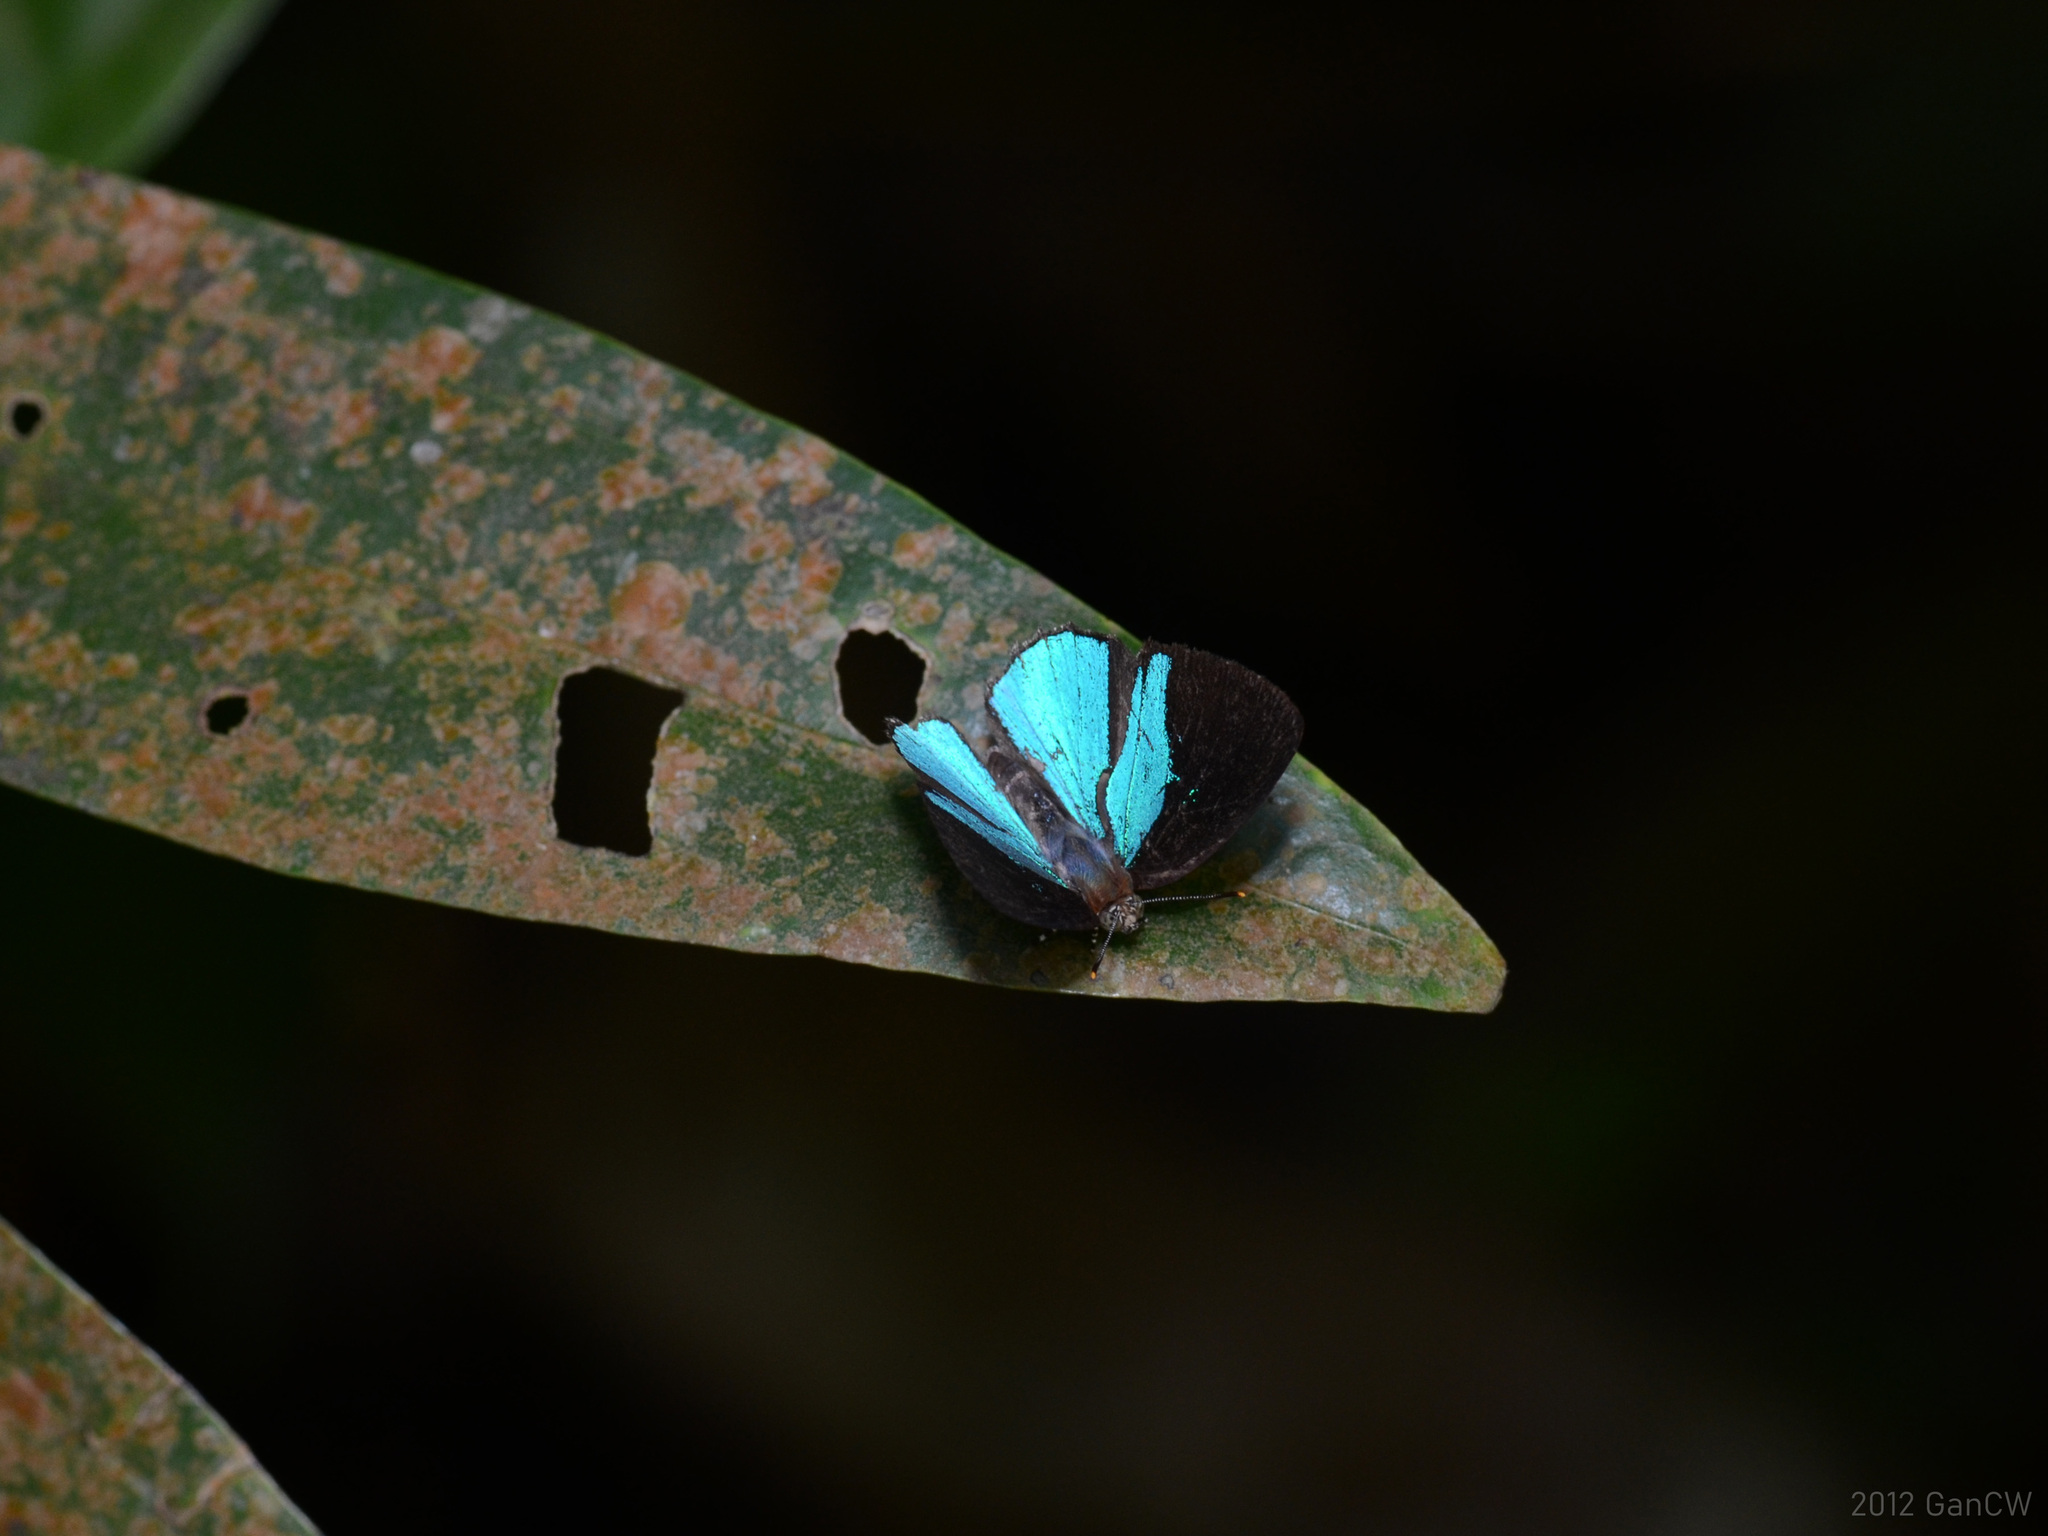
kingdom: Animalia
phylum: Arthropoda
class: Insecta
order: Lepidoptera
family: Lycaenidae
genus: Poritia
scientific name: Poritia sumatrae
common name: Sumatran gem
